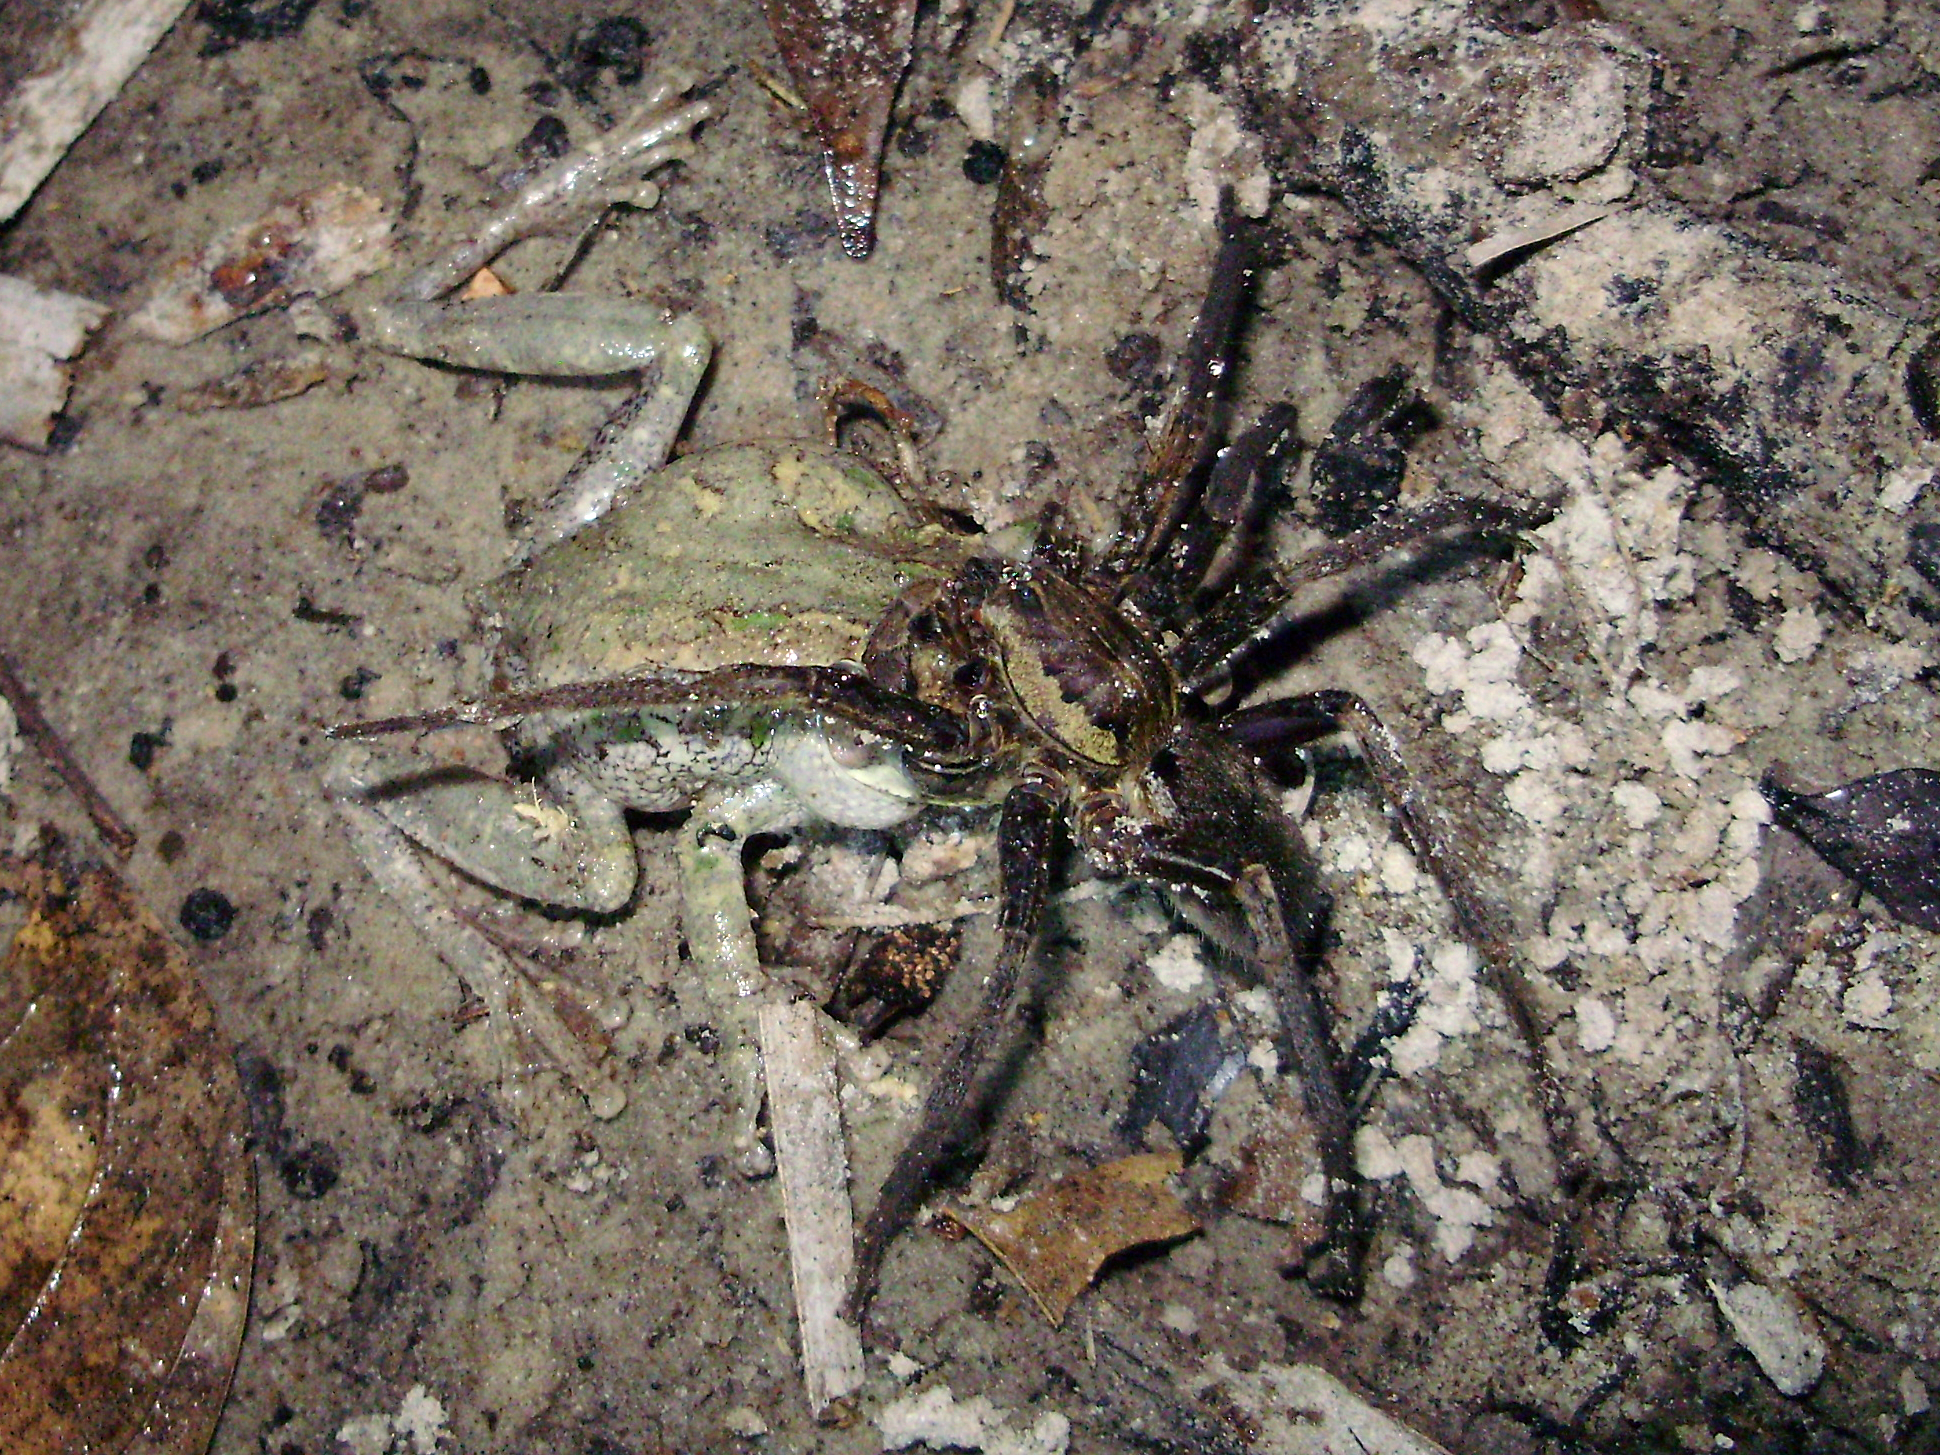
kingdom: Animalia
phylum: Arthropoda
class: Arachnida
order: Araneae
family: Ctenidae
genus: Ancylometes
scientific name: Ancylometes rufus
